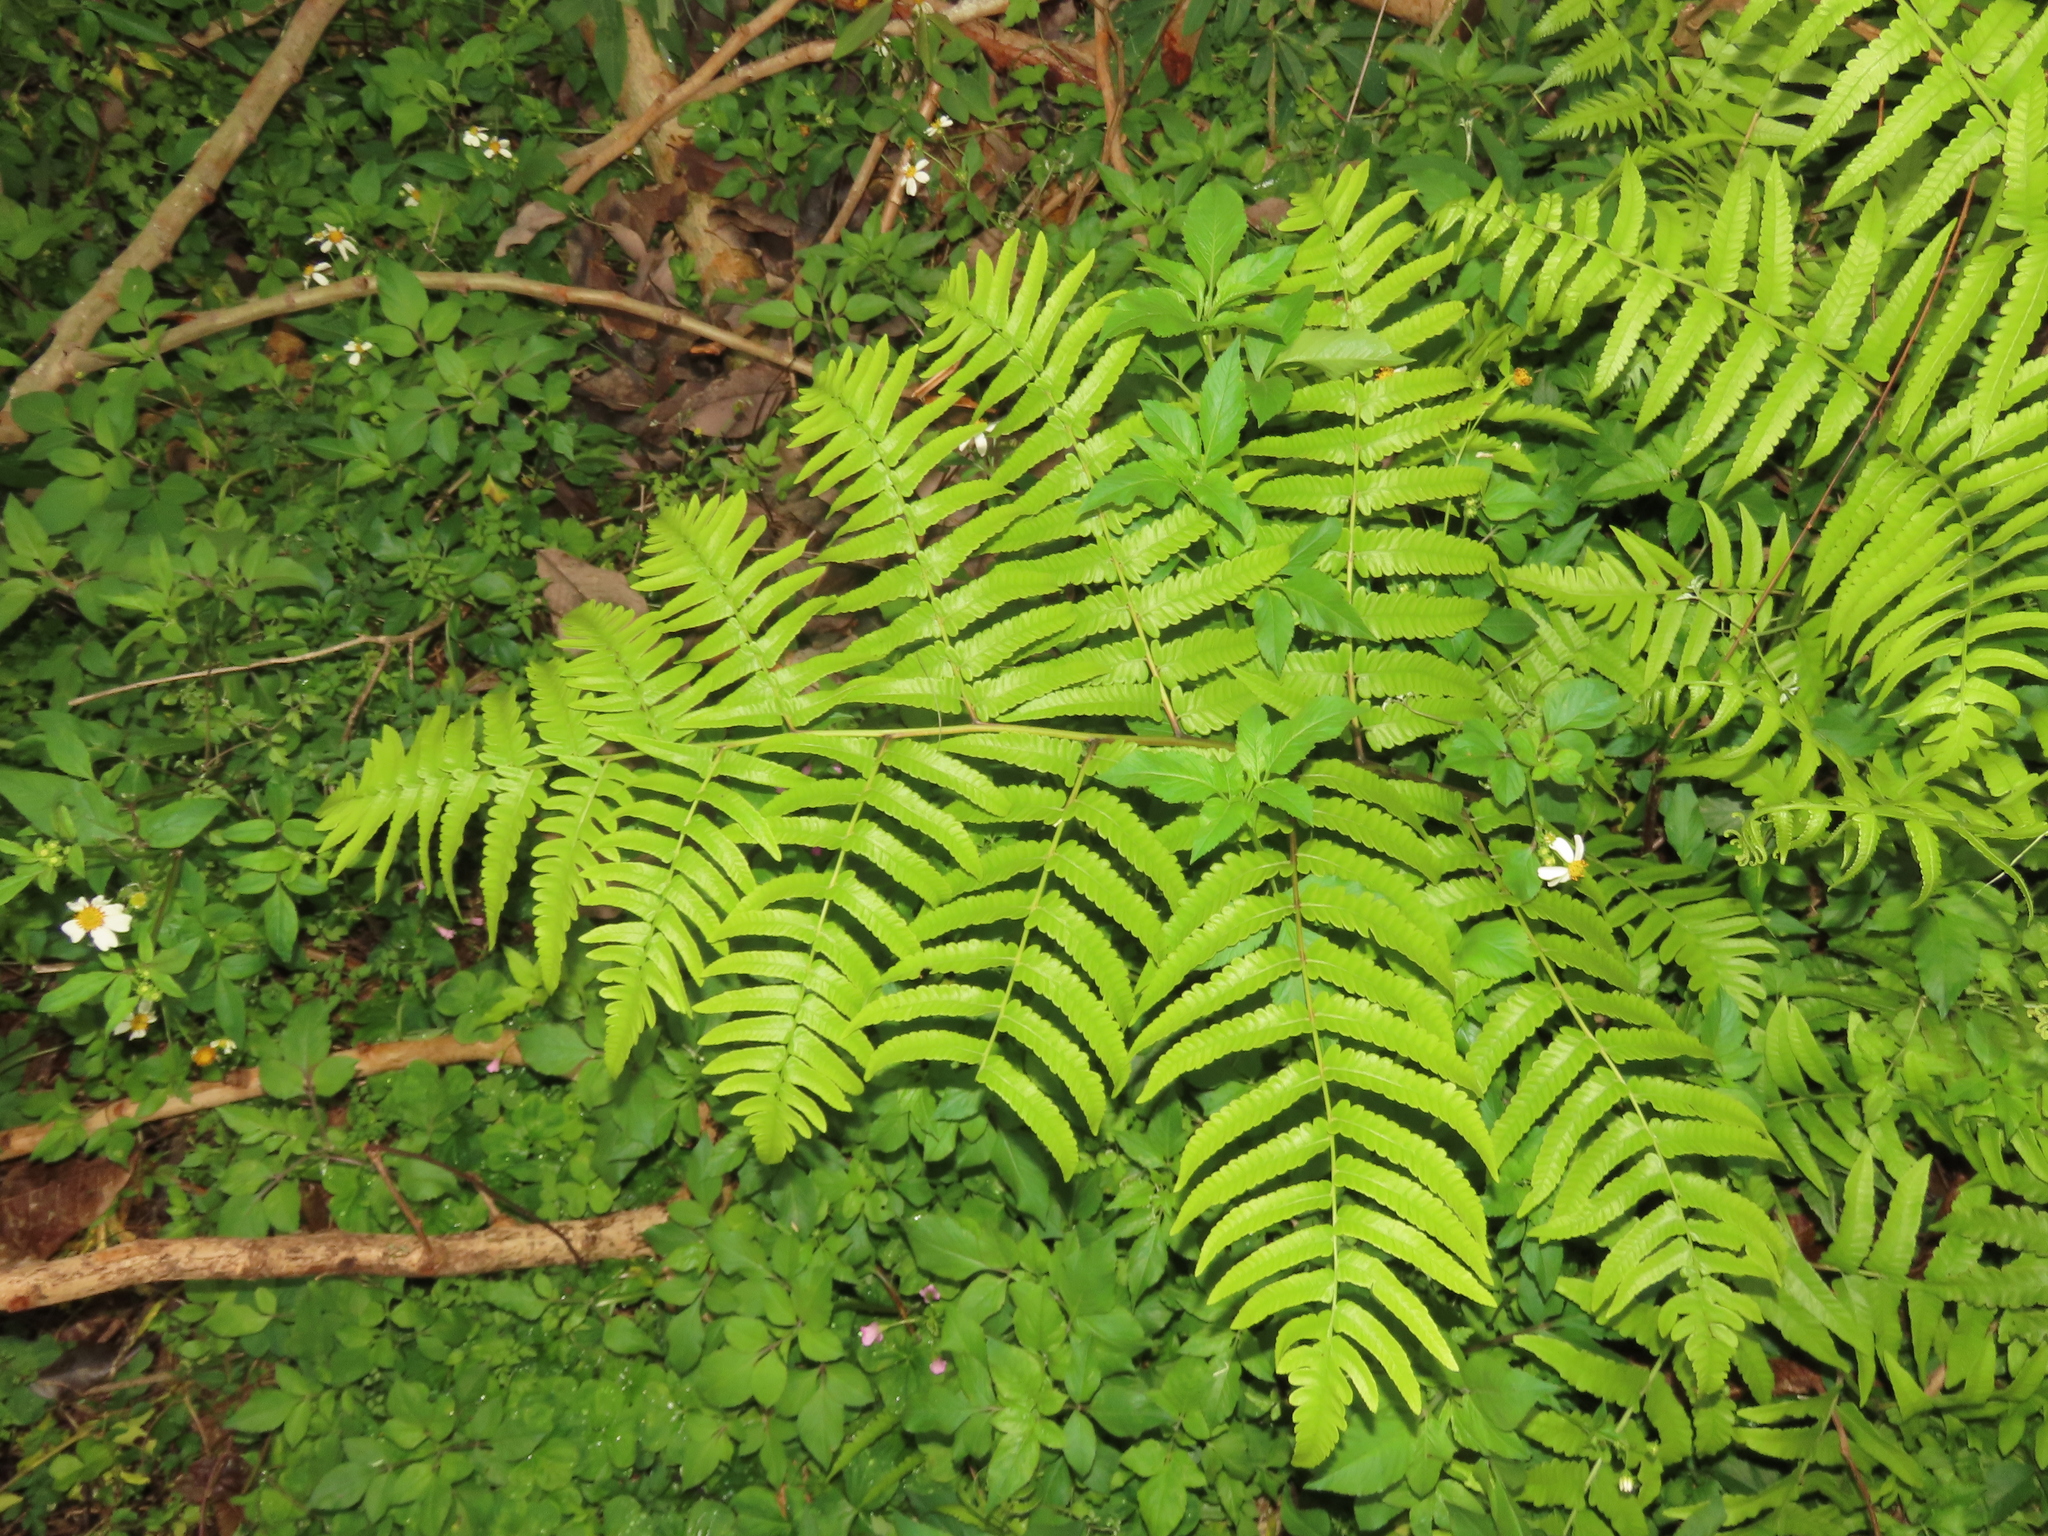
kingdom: Plantae
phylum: Tracheophyta
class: Polypodiopsida
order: Polypodiales
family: Athyriaceae
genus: Diplazium
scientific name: Diplazium esculentum
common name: Vegetable fern
